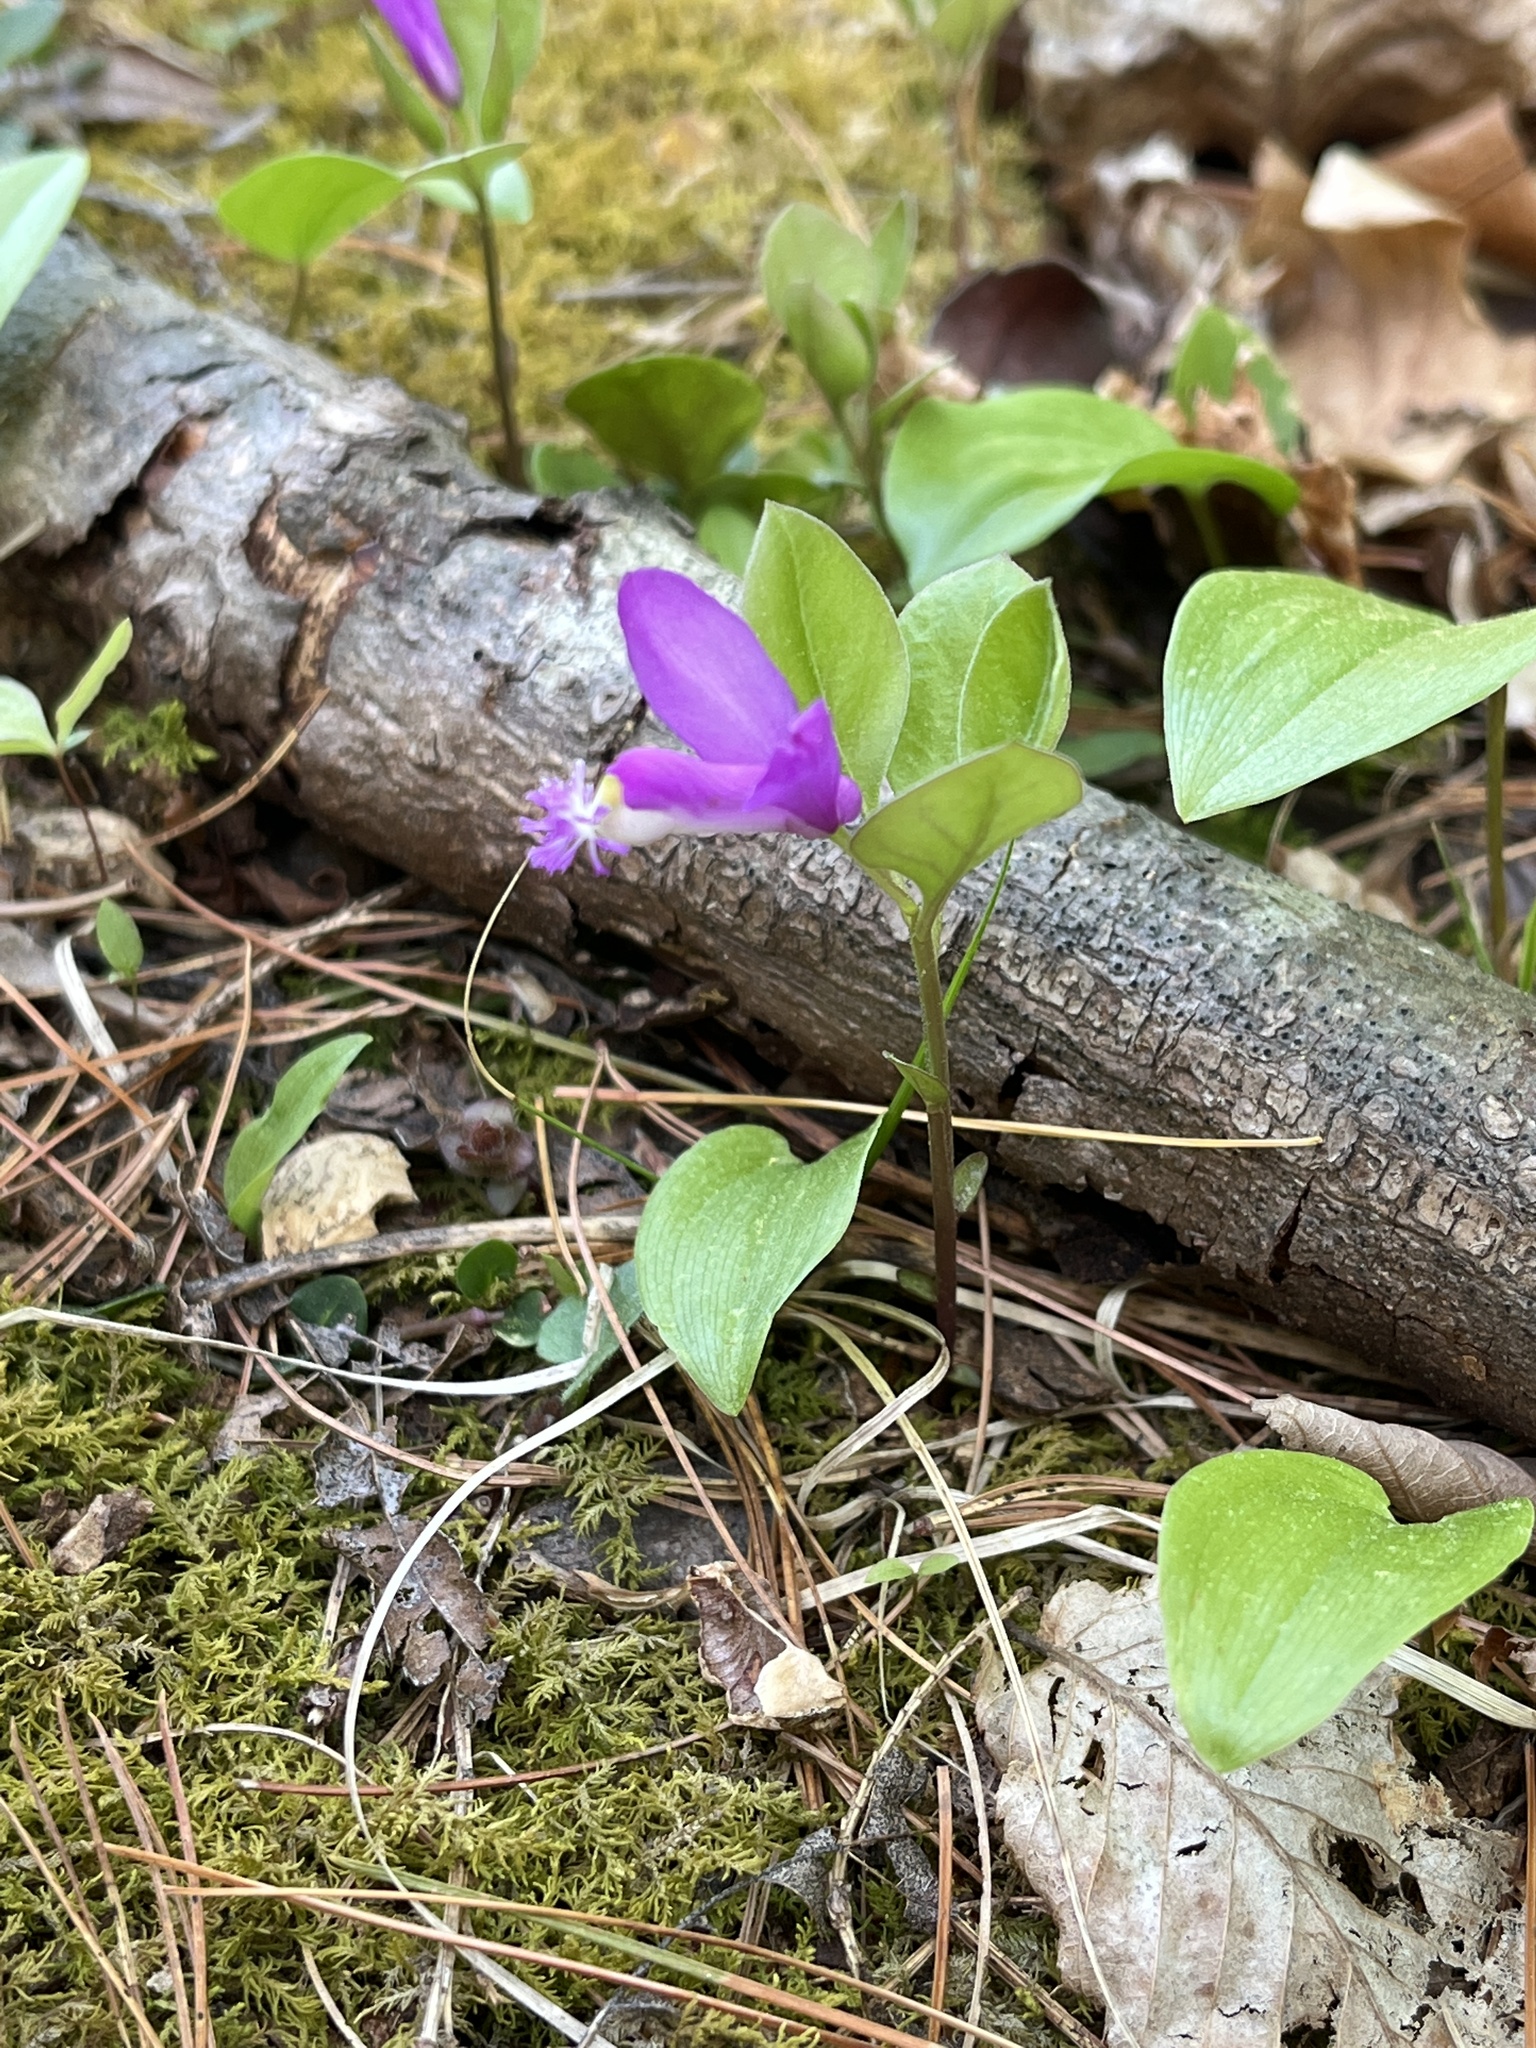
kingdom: Plantae
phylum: Tracheophyta
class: Magnoliopsida
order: Fabales
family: Polygalaceae
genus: Polygaloides
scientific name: Polygaloides paucifolia
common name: Bird-on-the-wing
